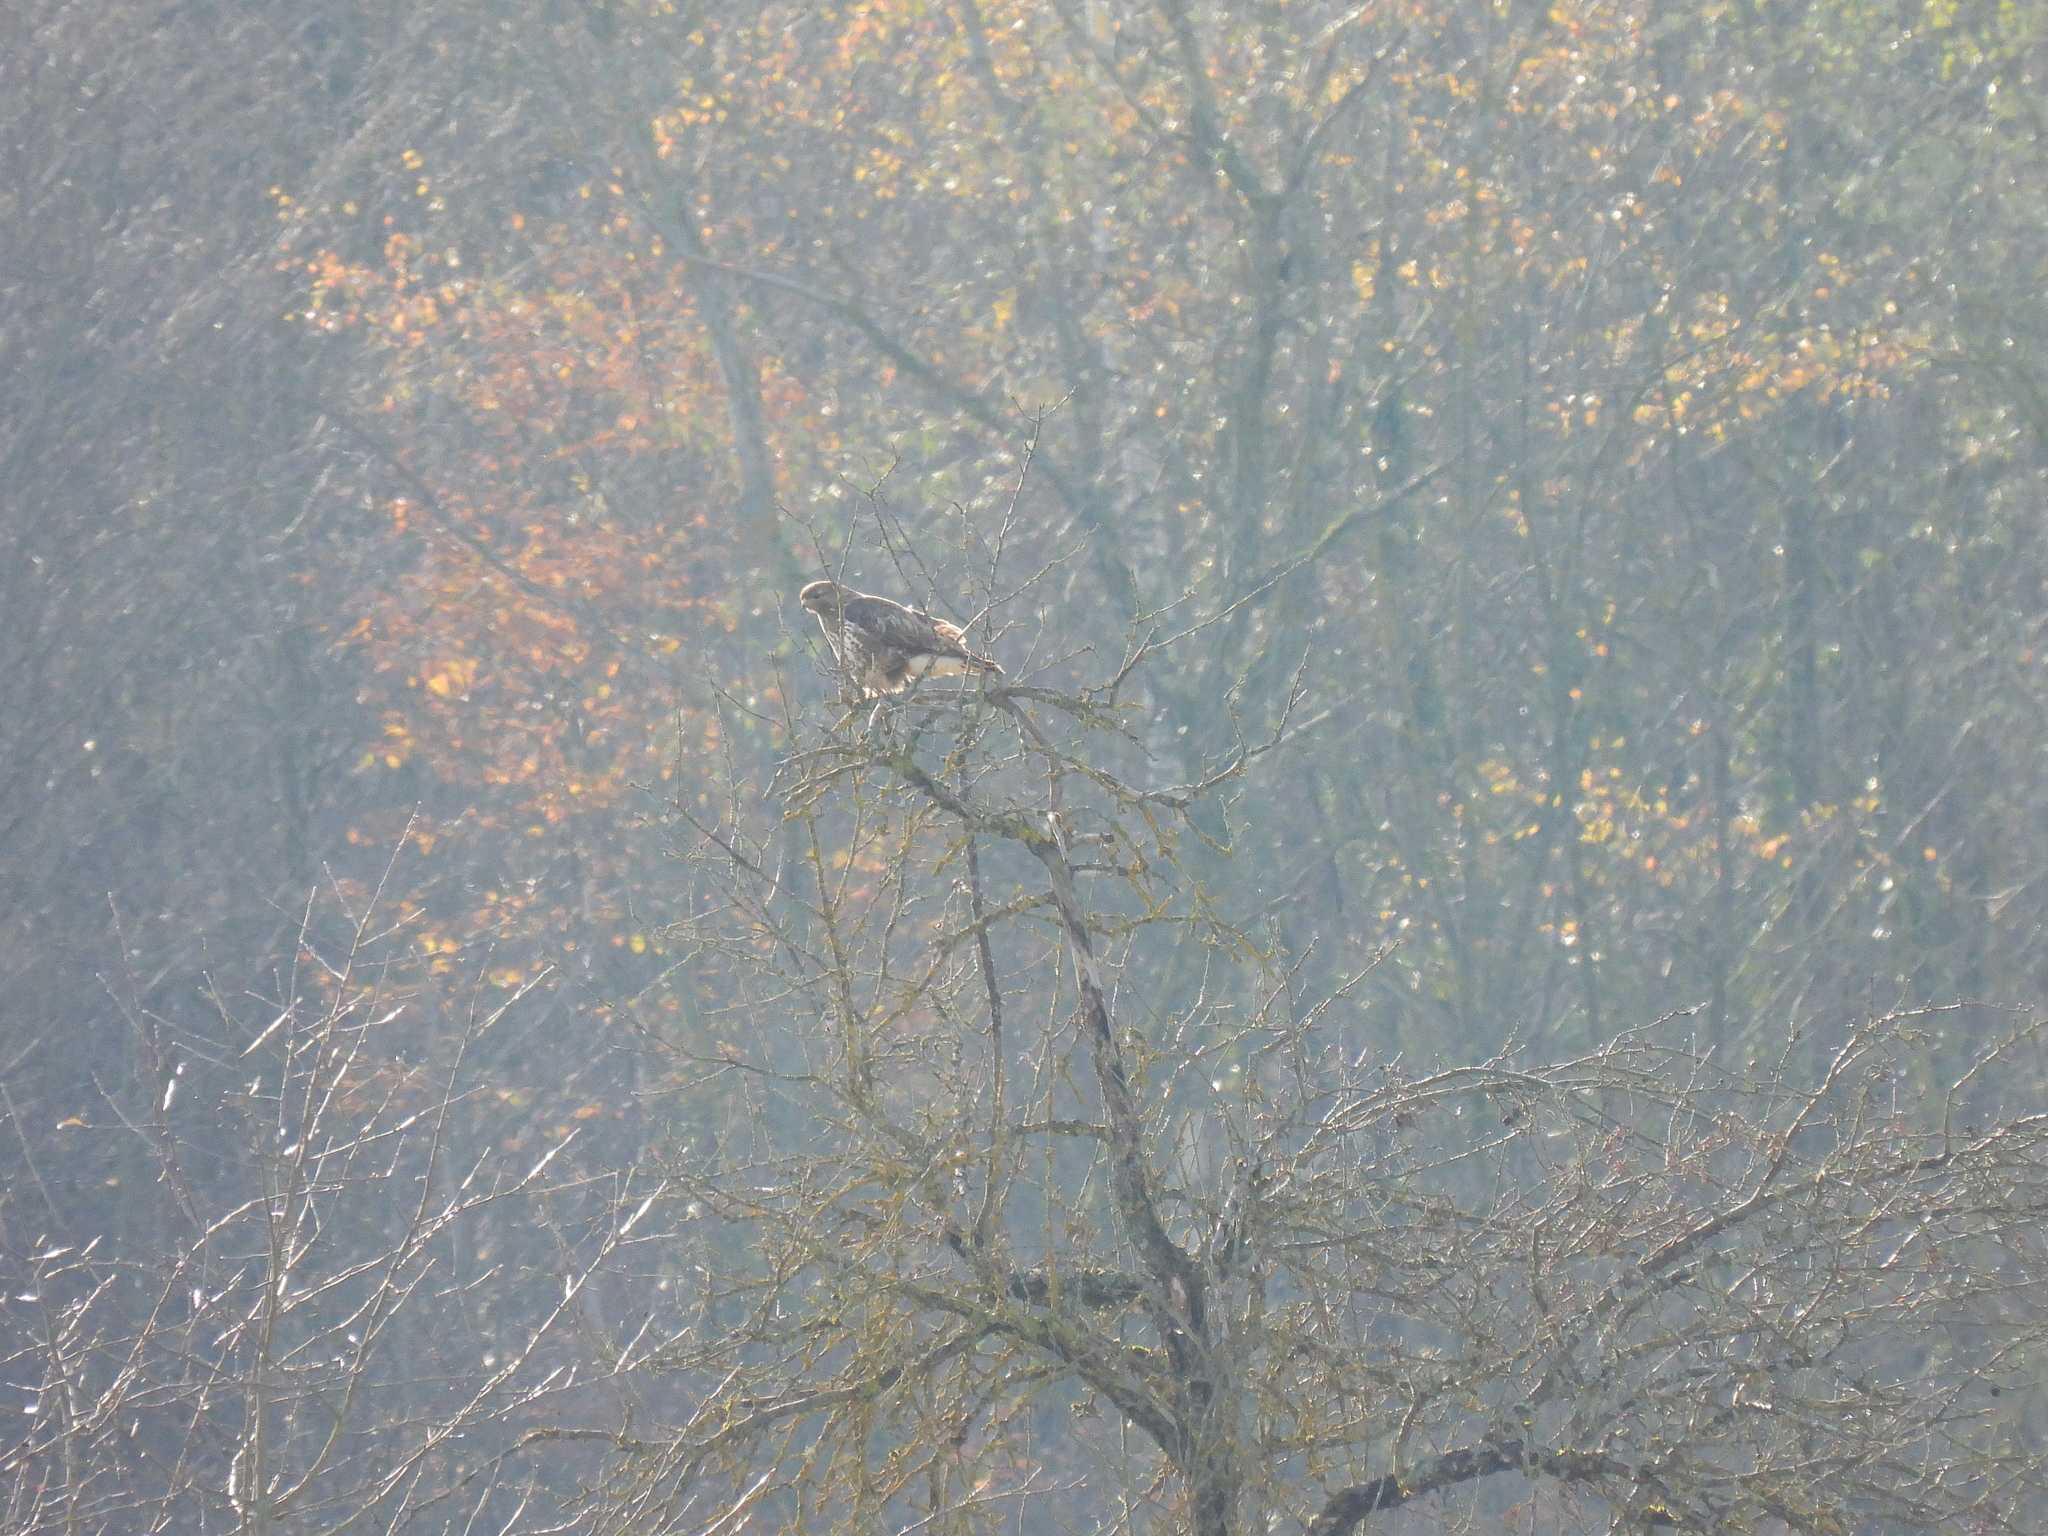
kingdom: Animalia
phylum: Chordata
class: Aves
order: Accipitriformes
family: Accipitridae
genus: Buteo
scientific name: Buteo buteo
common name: Common buzzard
